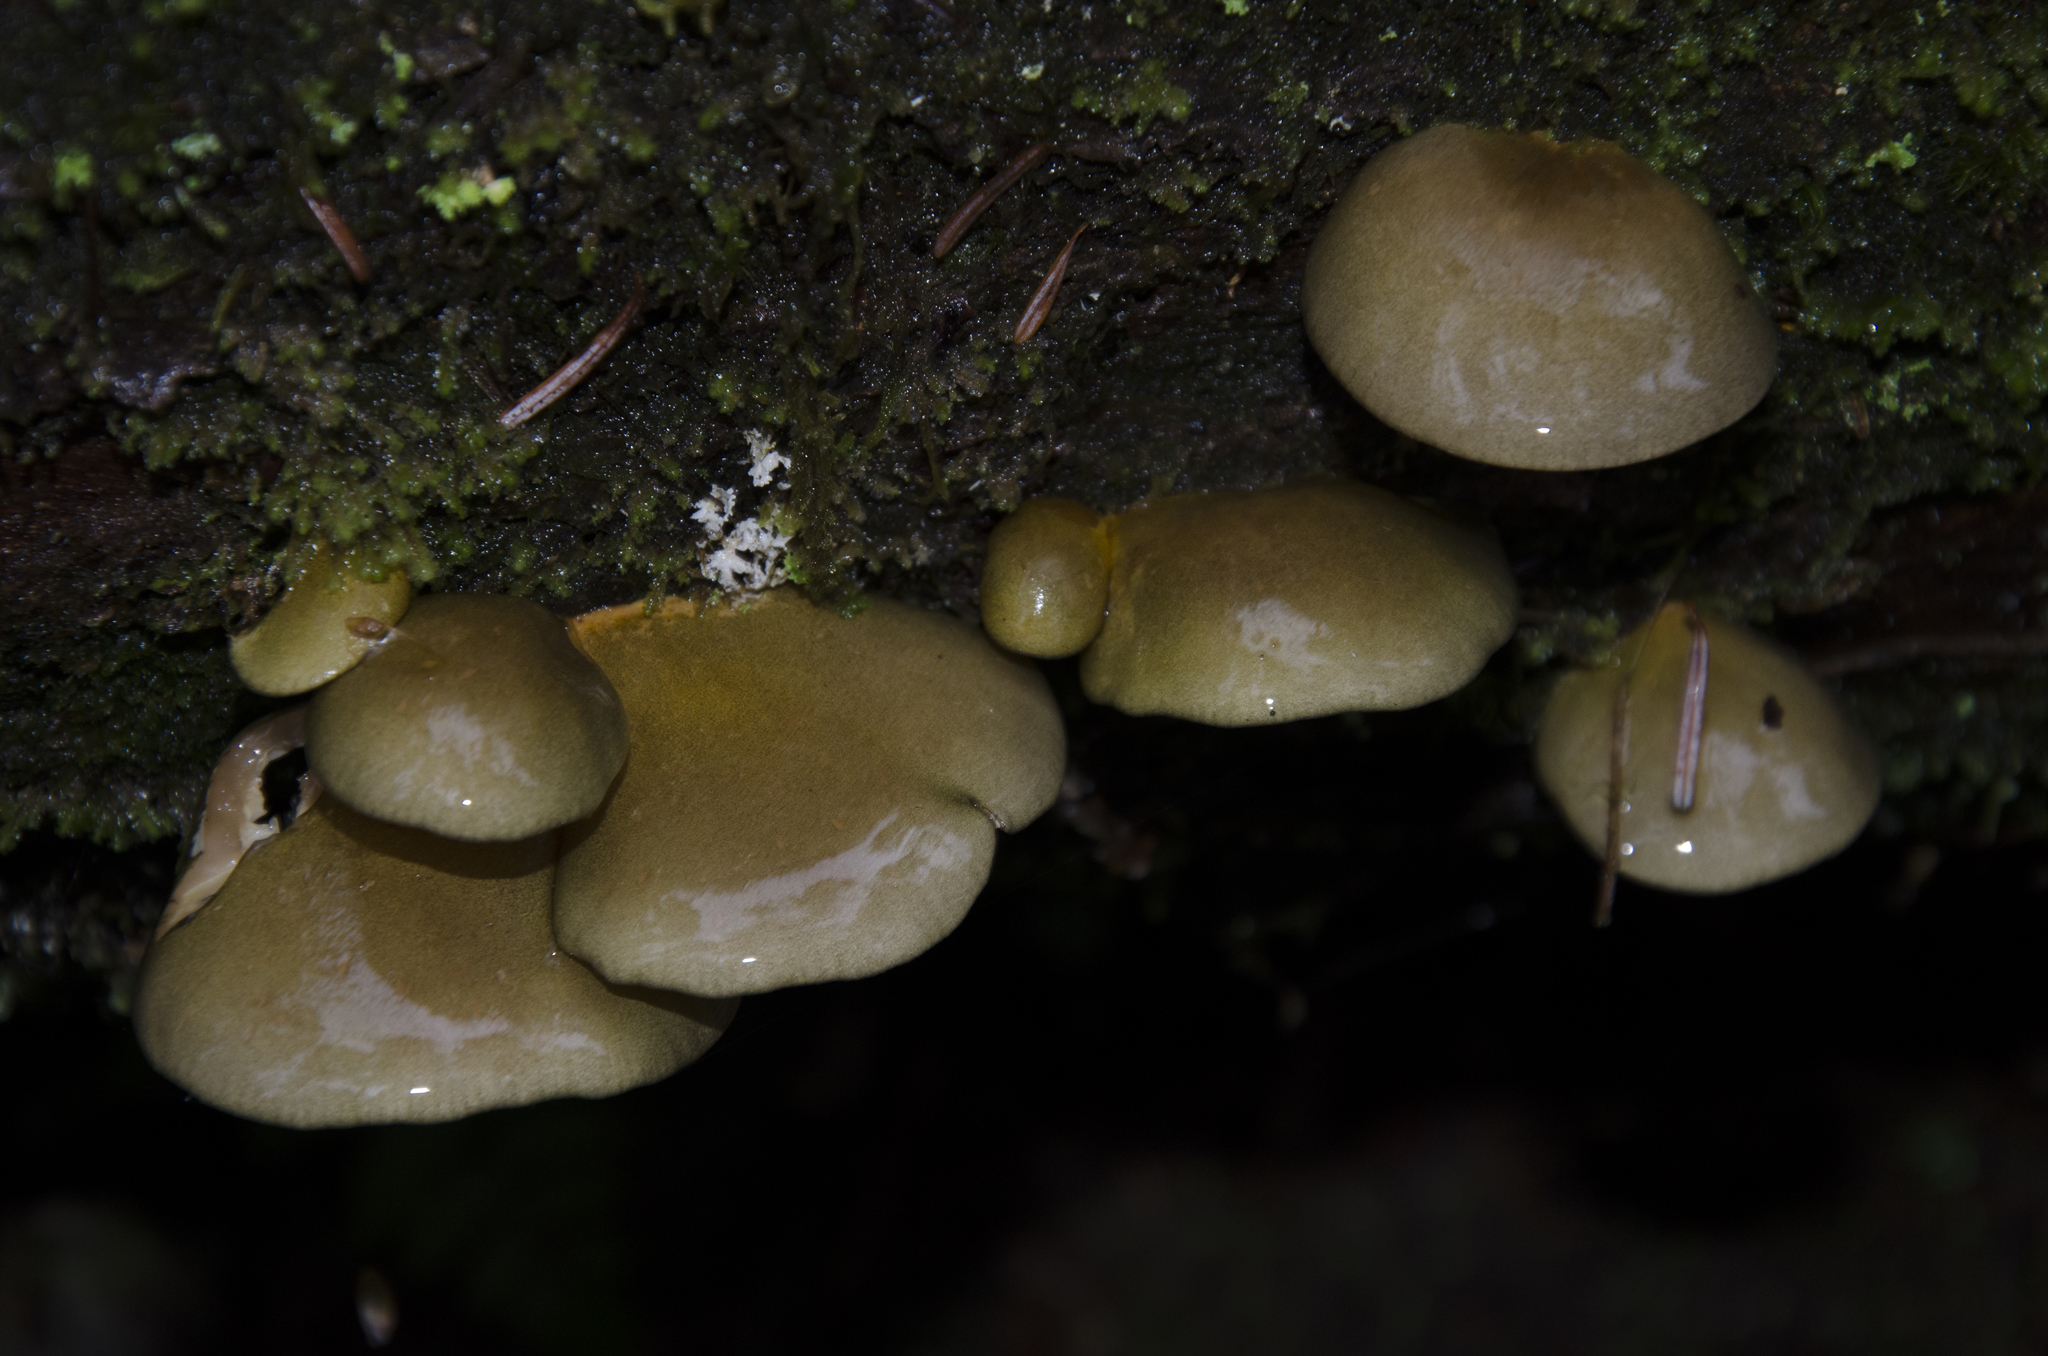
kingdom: Fungi
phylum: Basidiomycota
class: Agaricomycetes
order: Agaricales
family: Sarcomyxaceae
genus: Sarcomyxa
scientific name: Sarcomyxa serotina
